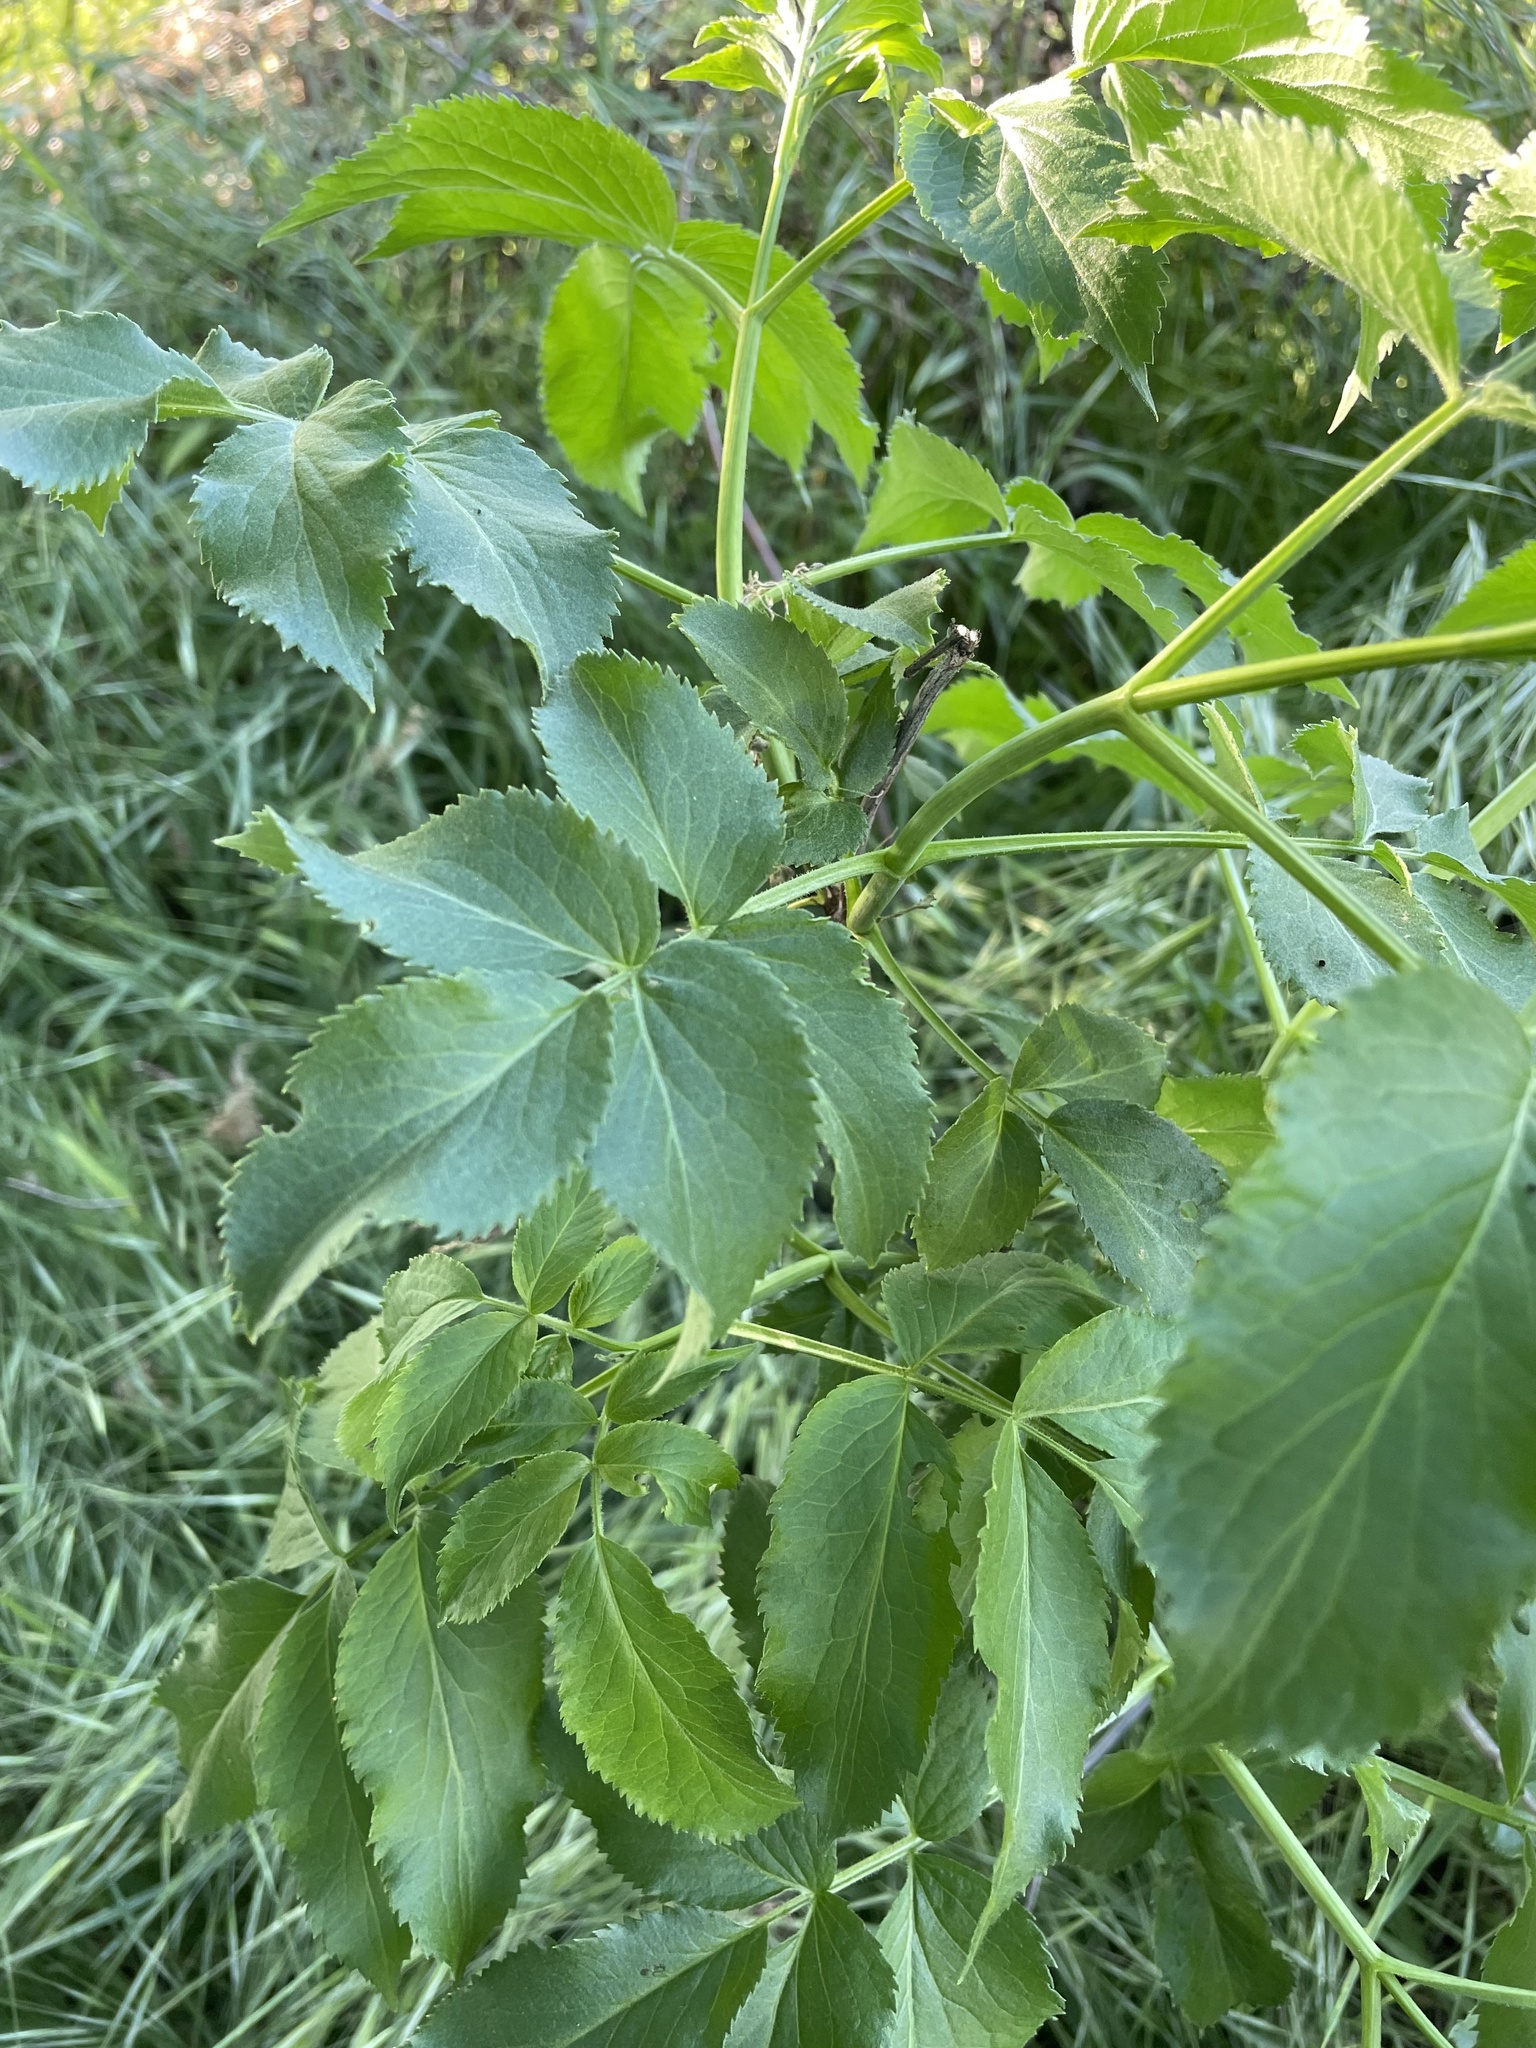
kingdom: Plantae
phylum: Tracheophyta
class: Magnoliopsida
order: Dipsacales
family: Viburnaceae
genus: Sambucus
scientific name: Sambucus cerulea
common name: Blue elder
